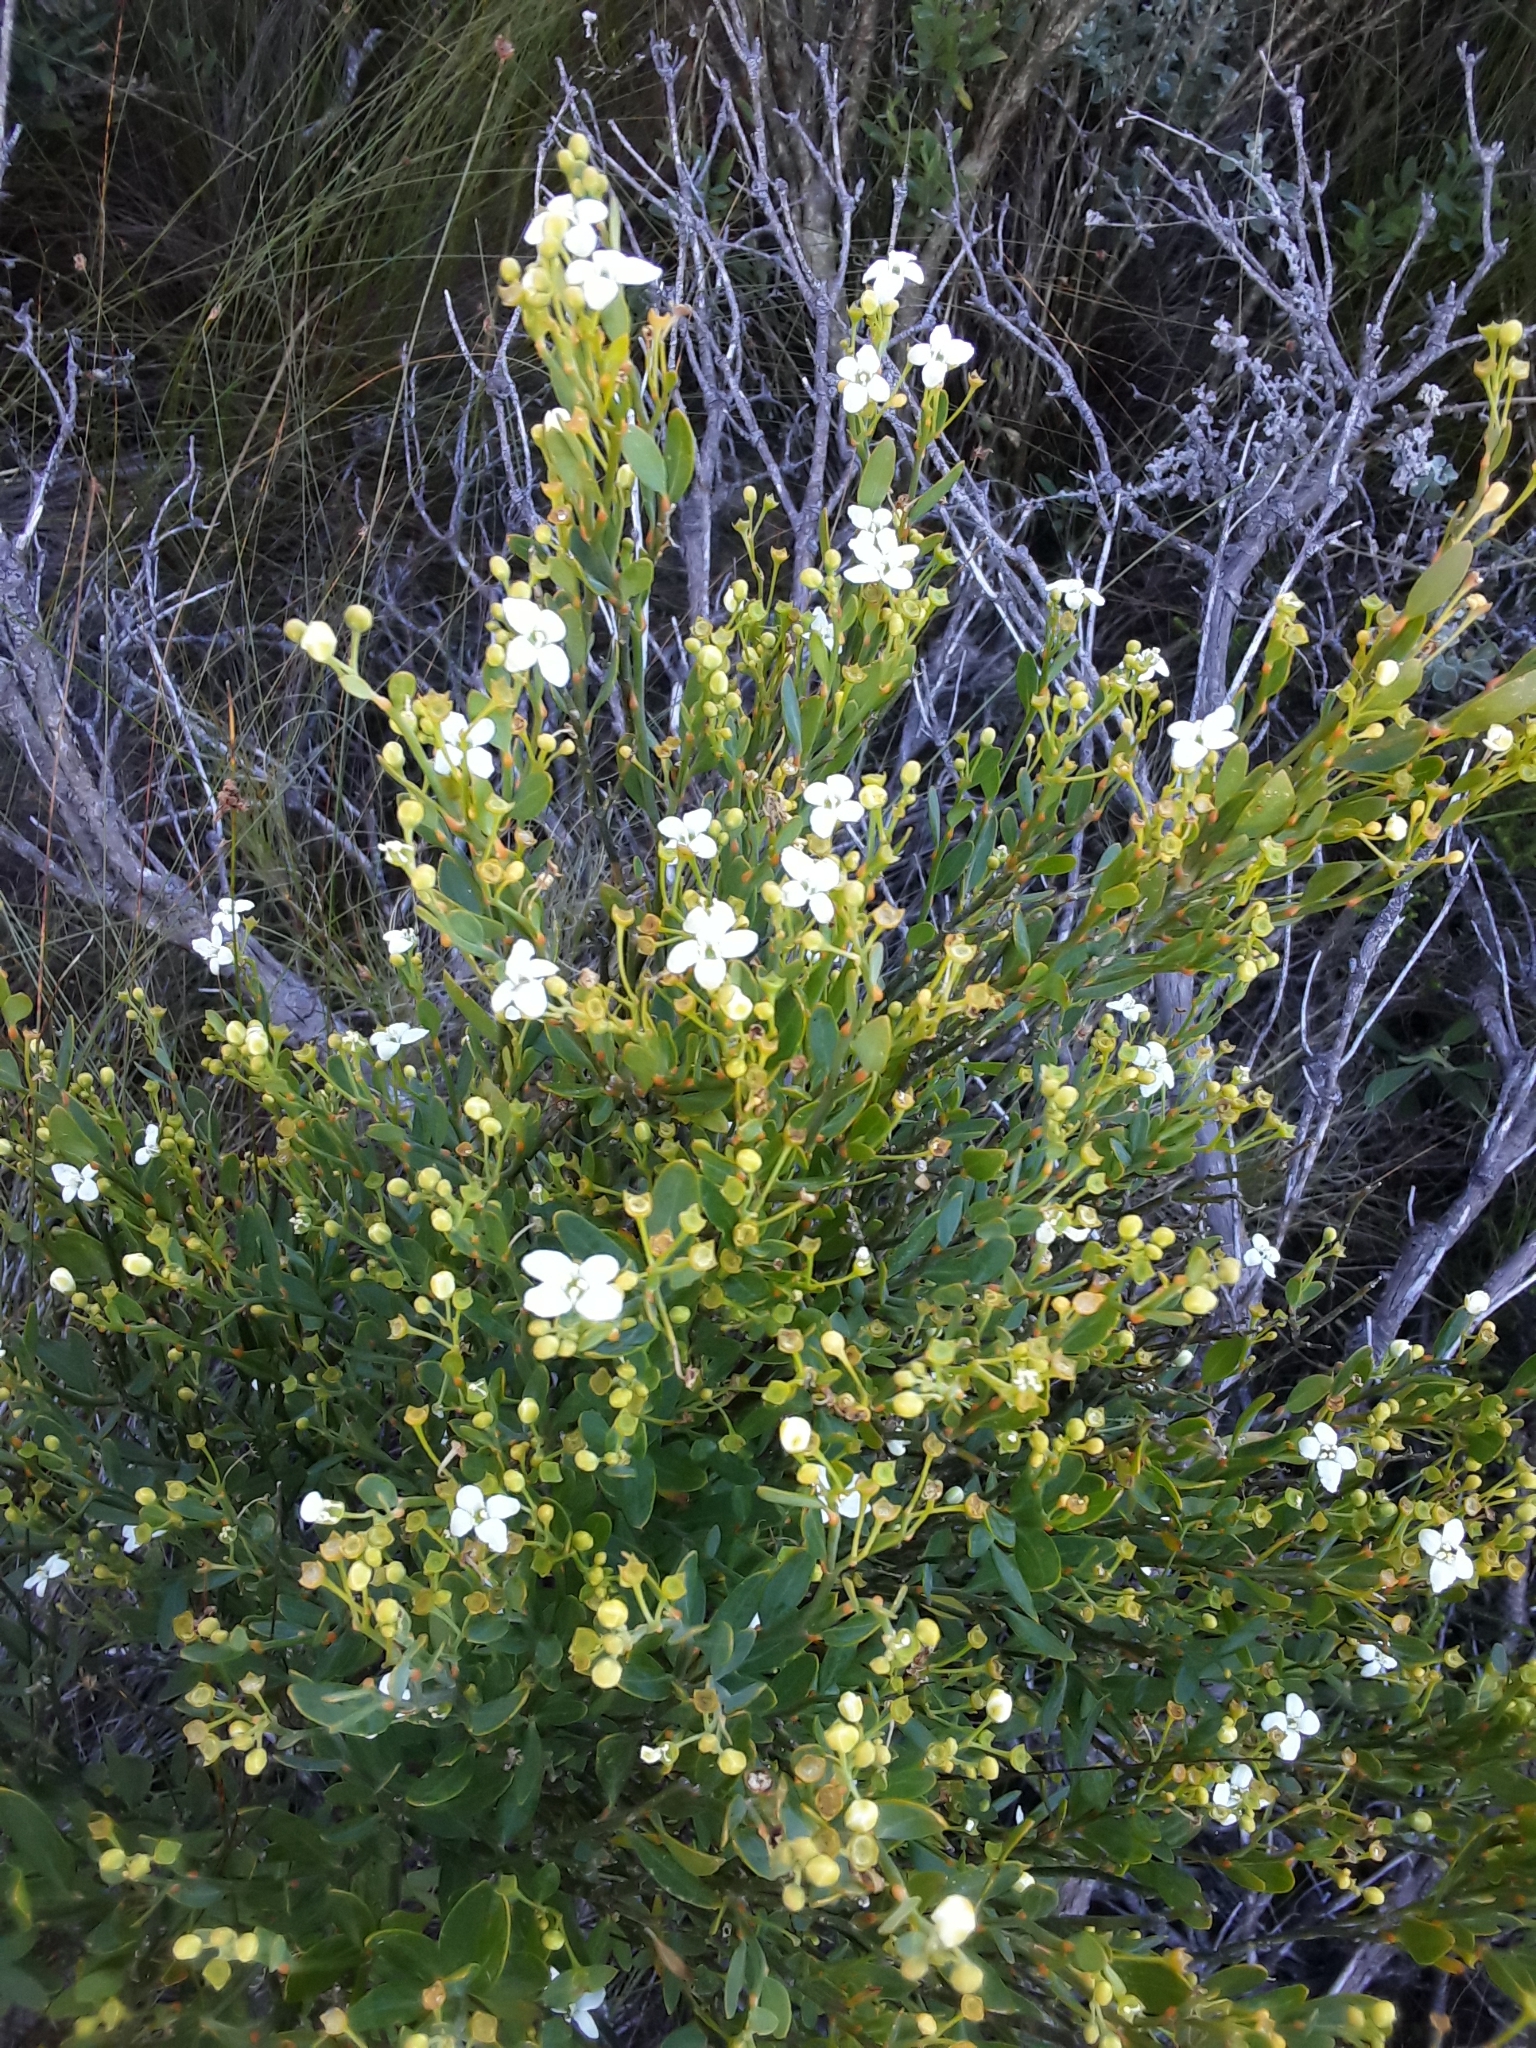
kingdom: Plantae
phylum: Tracheophyta
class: Magnoliopsida
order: Solanales
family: Montiniaceae
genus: Montinia
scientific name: Montinia caryophyllacea
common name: Wild clove-bush
